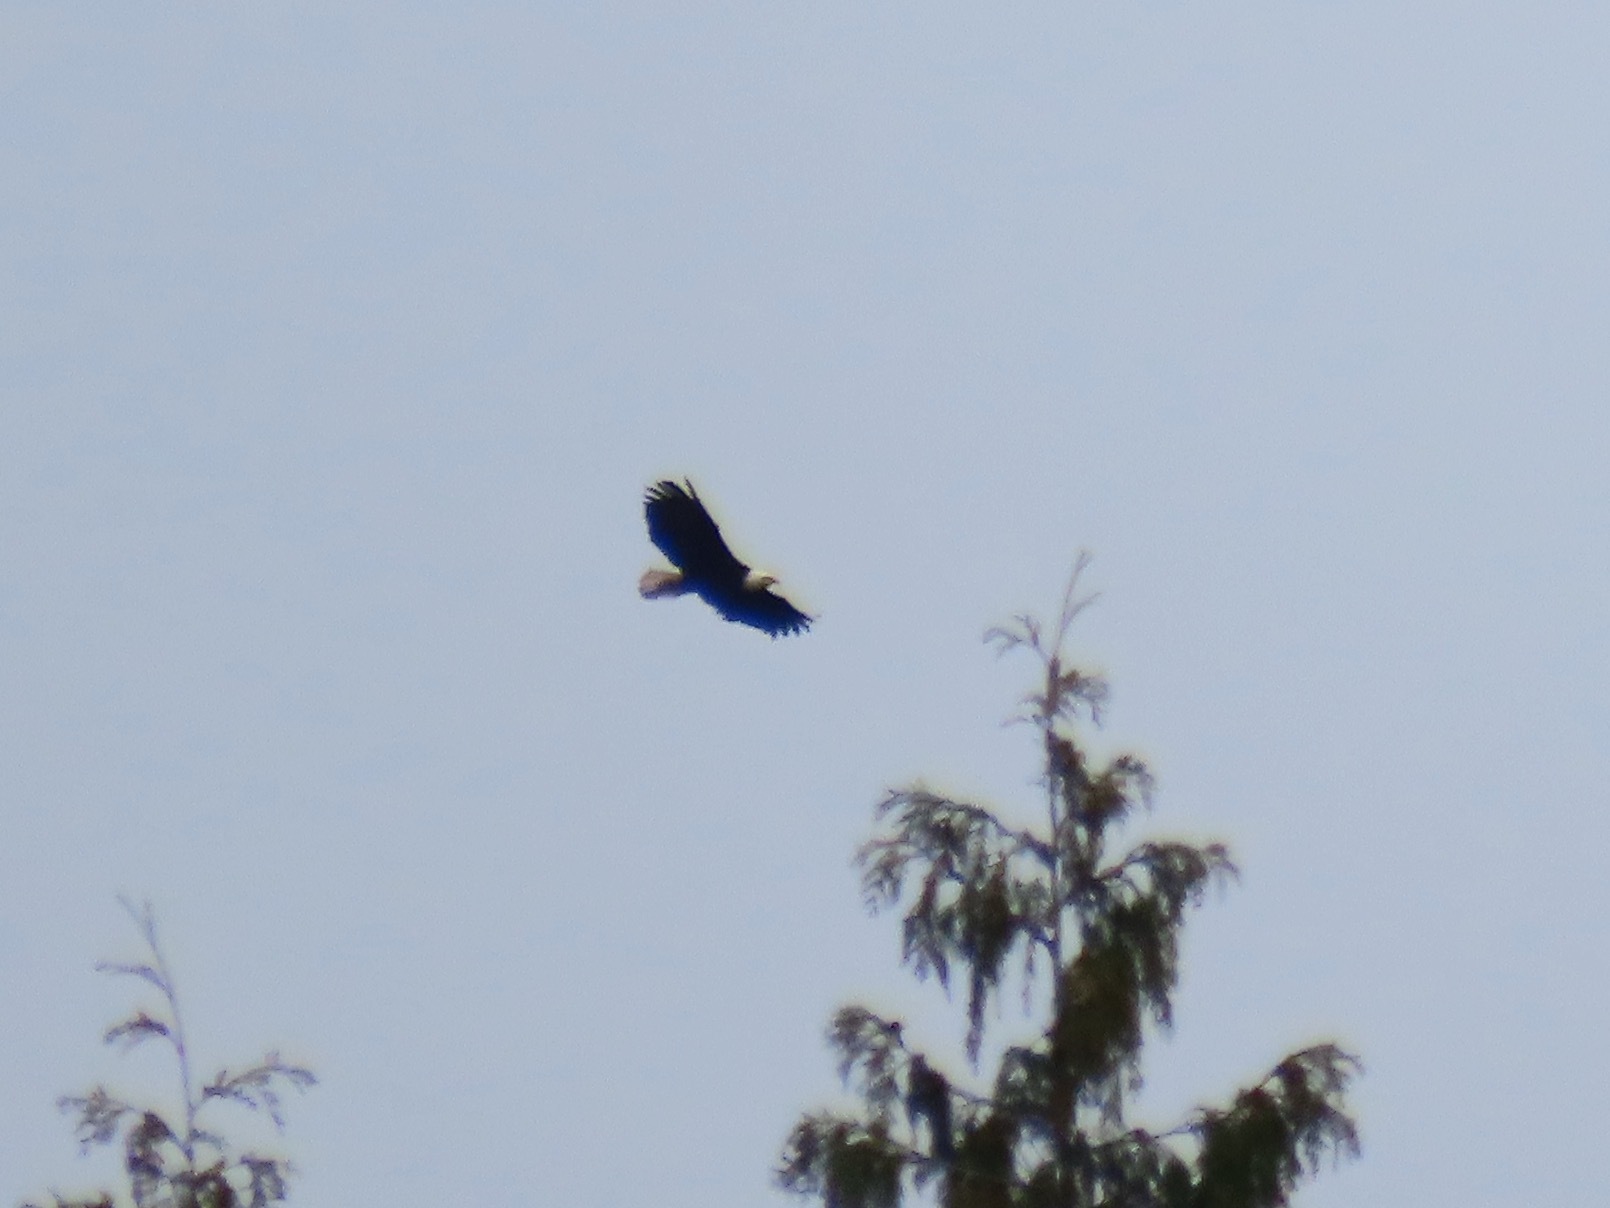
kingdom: Animalia
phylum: Chordata
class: Aves
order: Accipitriformes
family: Accipitridae
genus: Haliaeetus
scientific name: Haliaeetus leucocephalus
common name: Bald eagle
